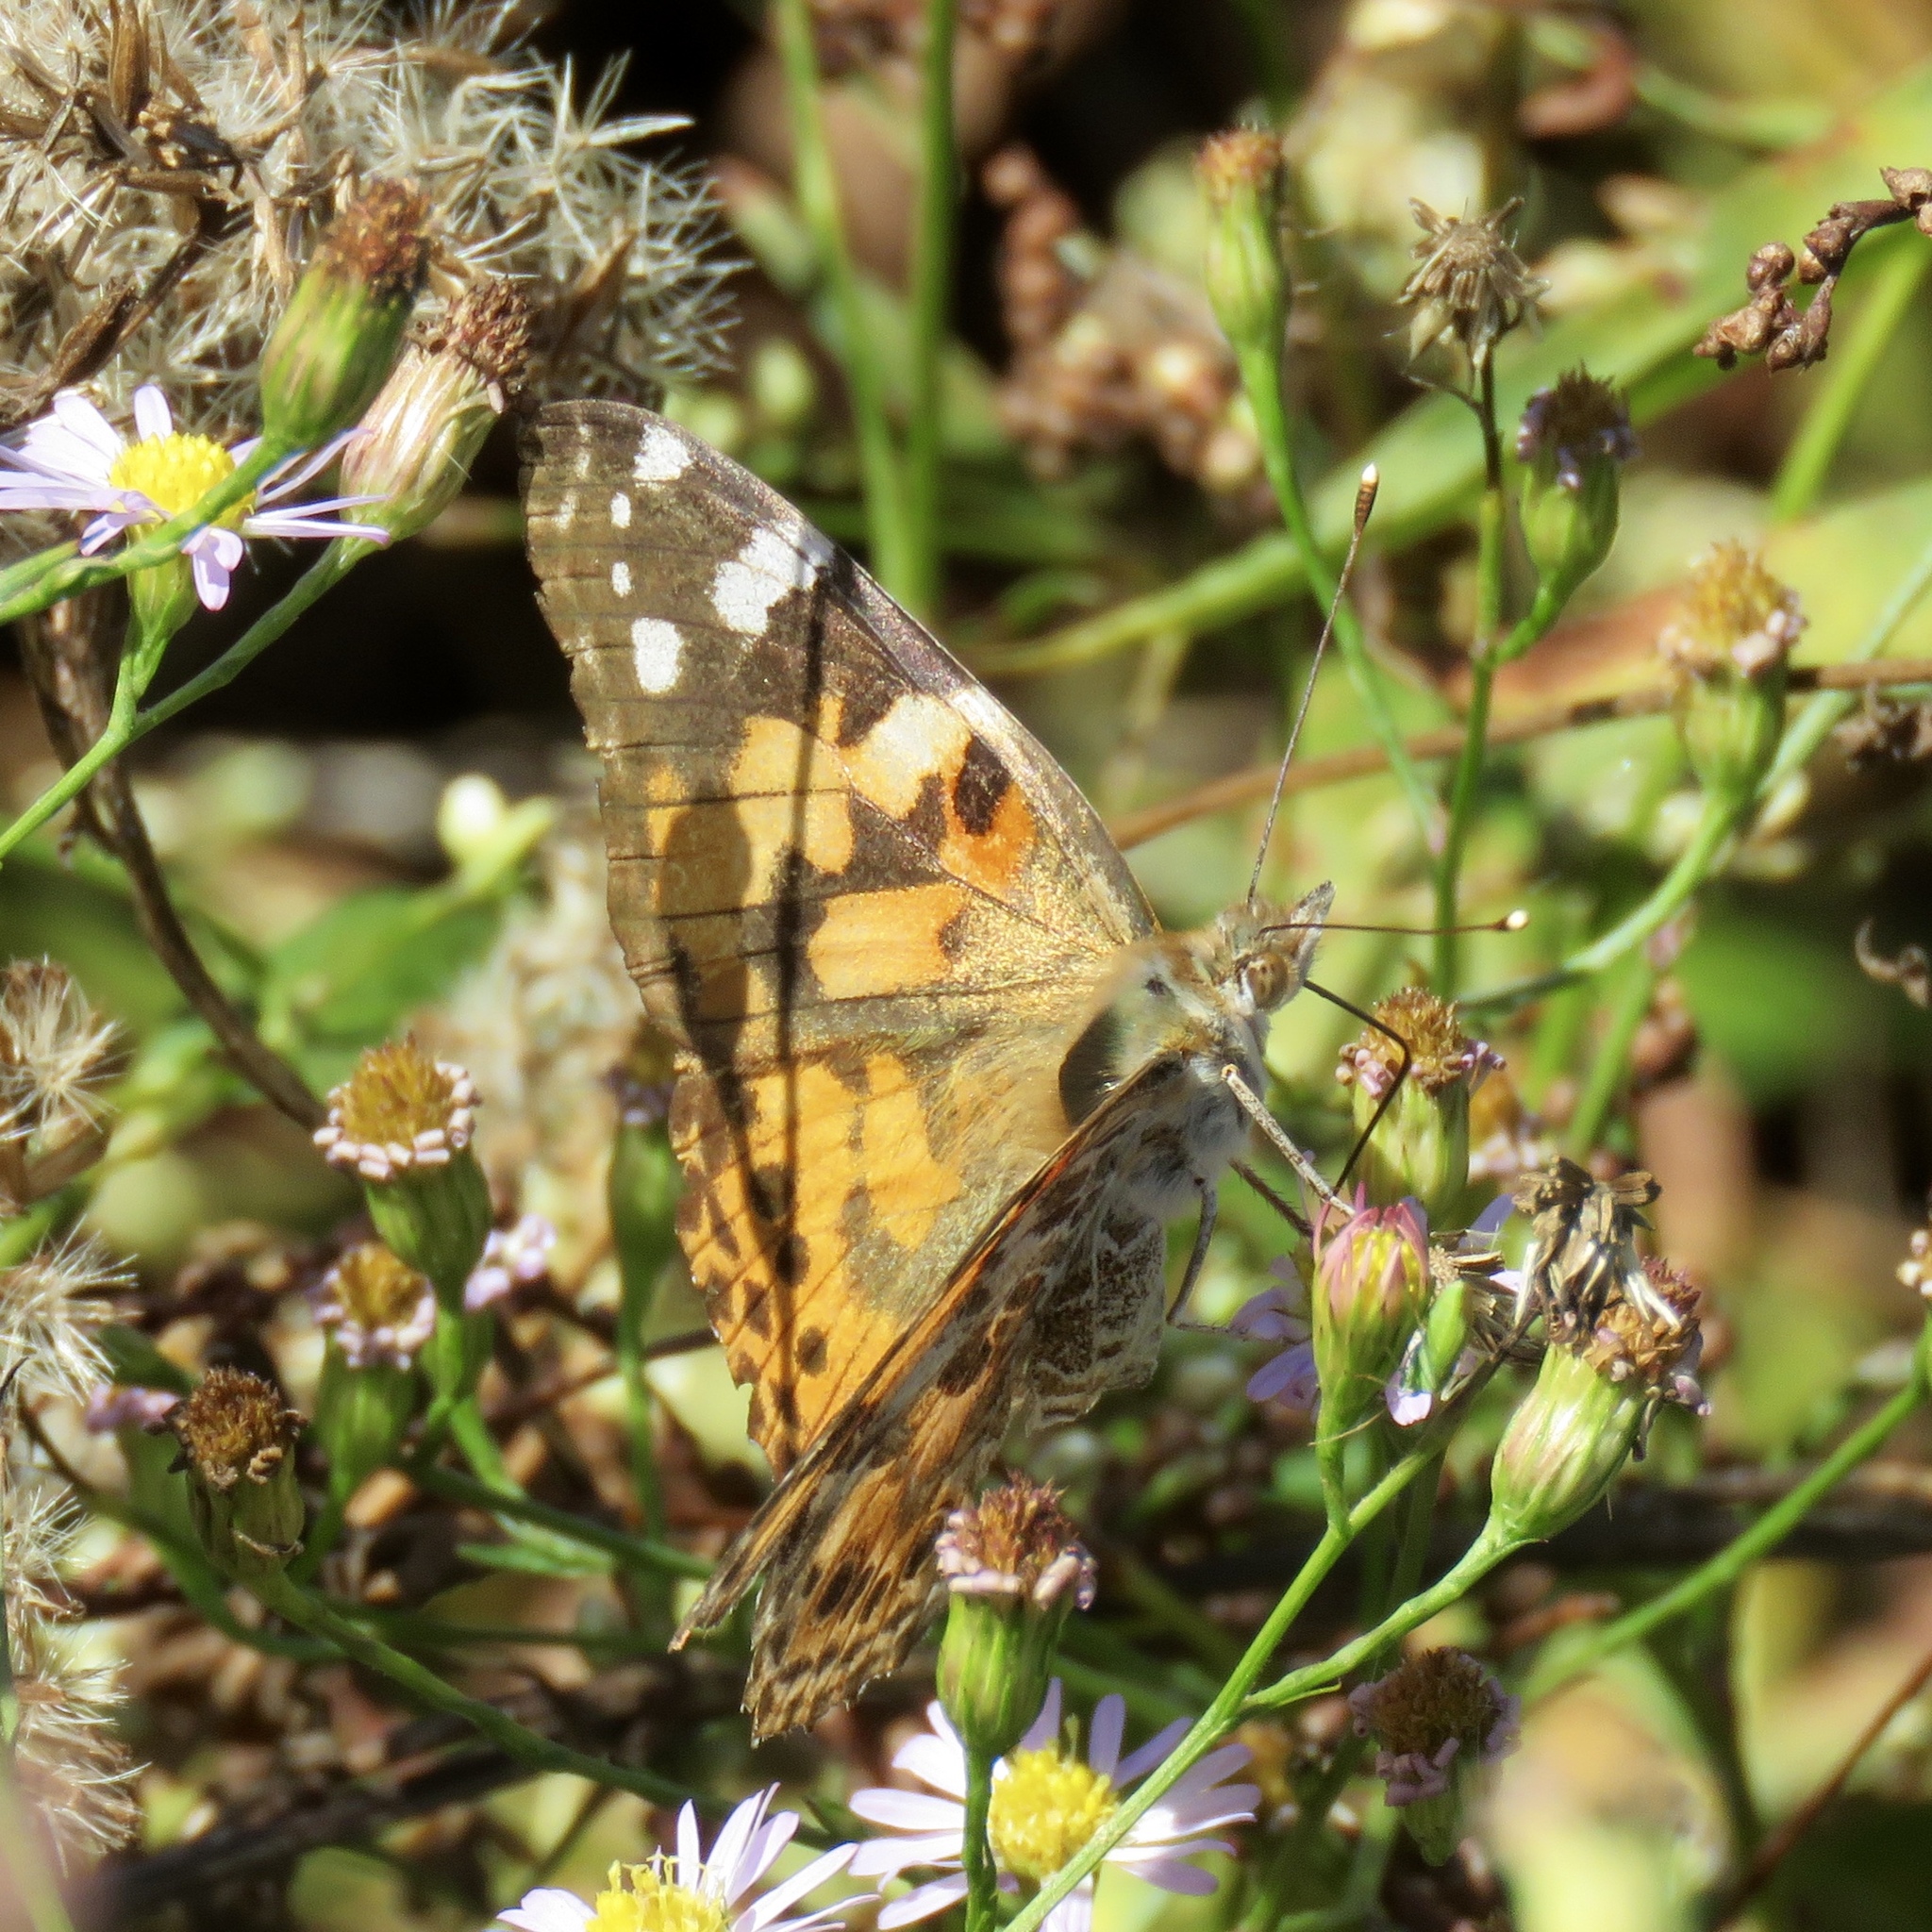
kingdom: Animalia
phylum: Arthropoda
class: Insecta
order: Lepidoptera
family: Nymphalidae
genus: Vanessa
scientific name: Vanessa cardui
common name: Painted lady
